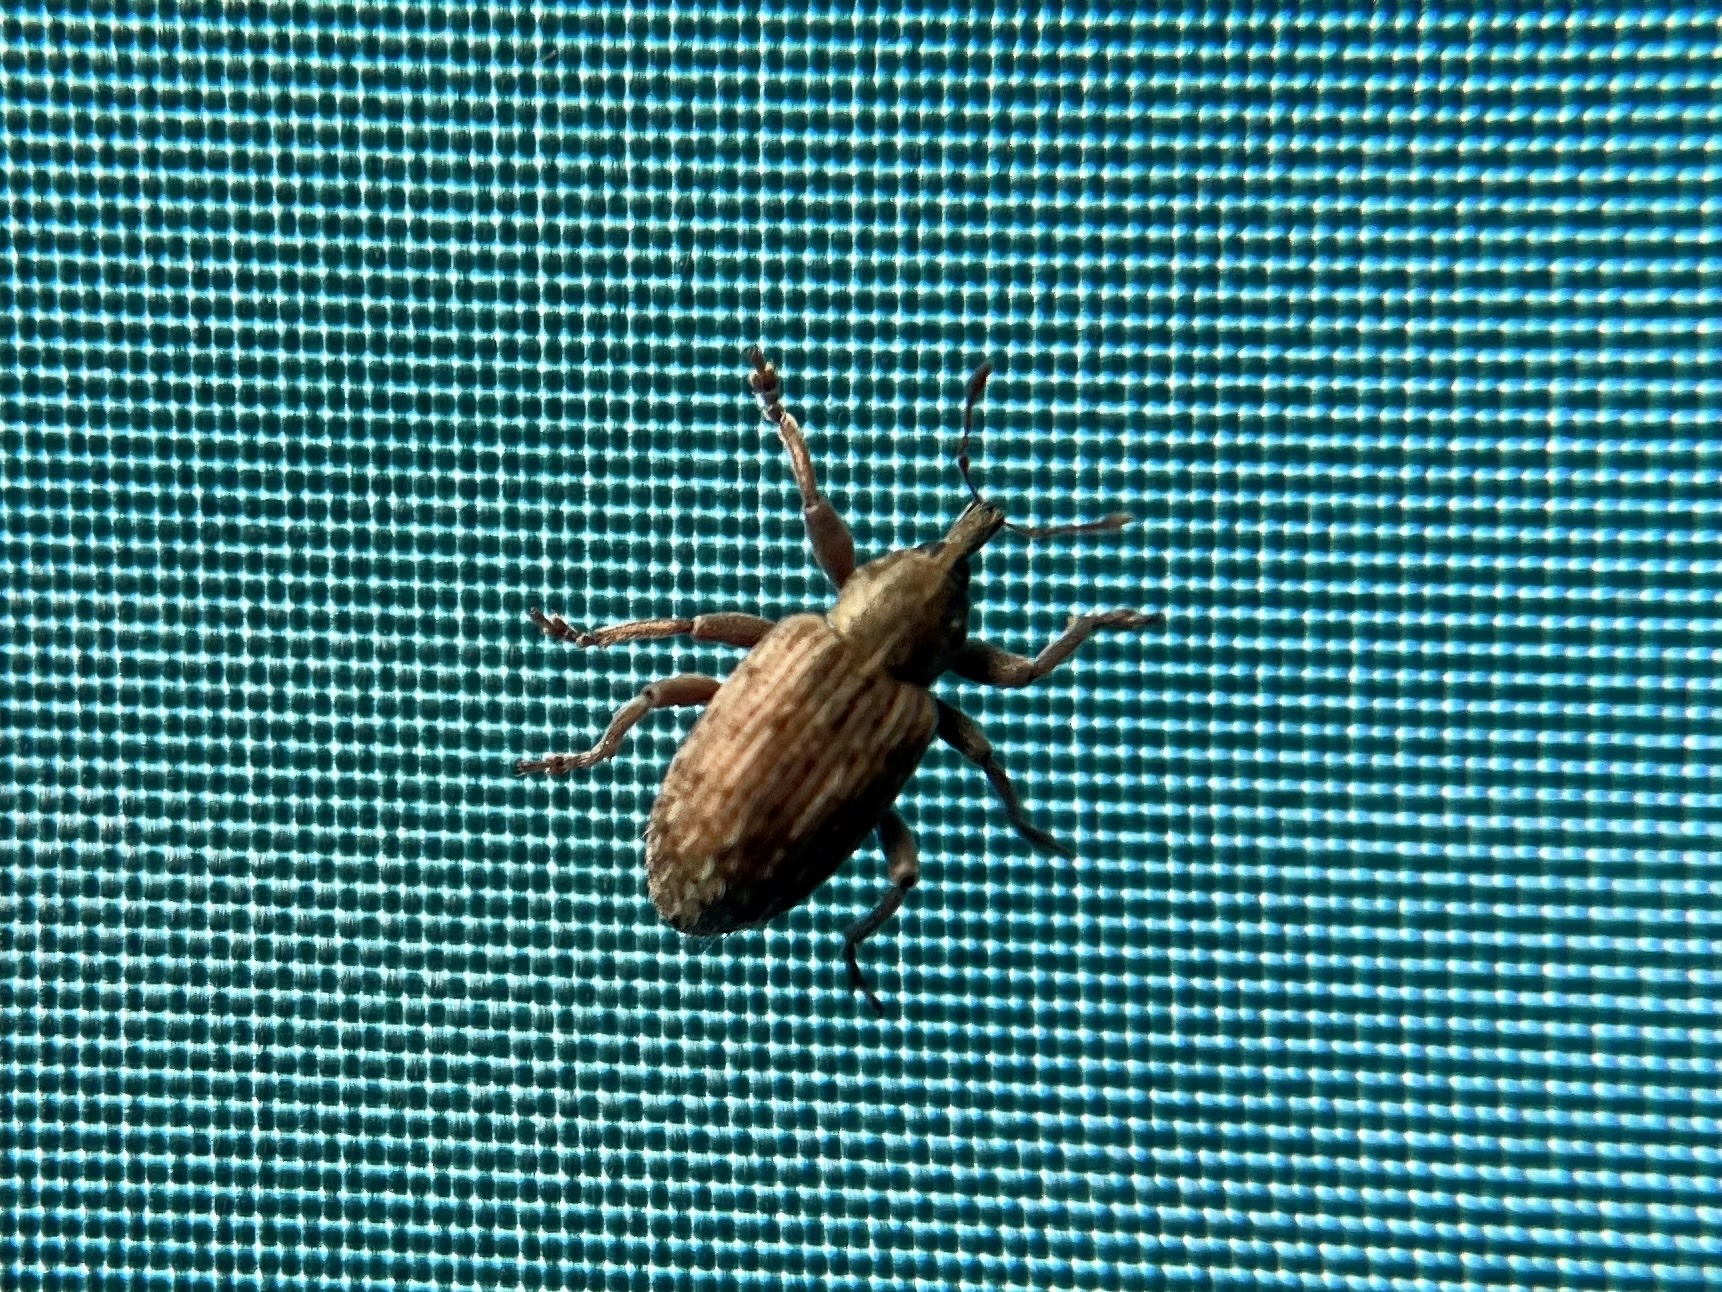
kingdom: Animalia
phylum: Arthropoda
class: Insecta
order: Coleoptera
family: Curculionidae
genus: Hypera
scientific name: Hypera postica
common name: Weevil
